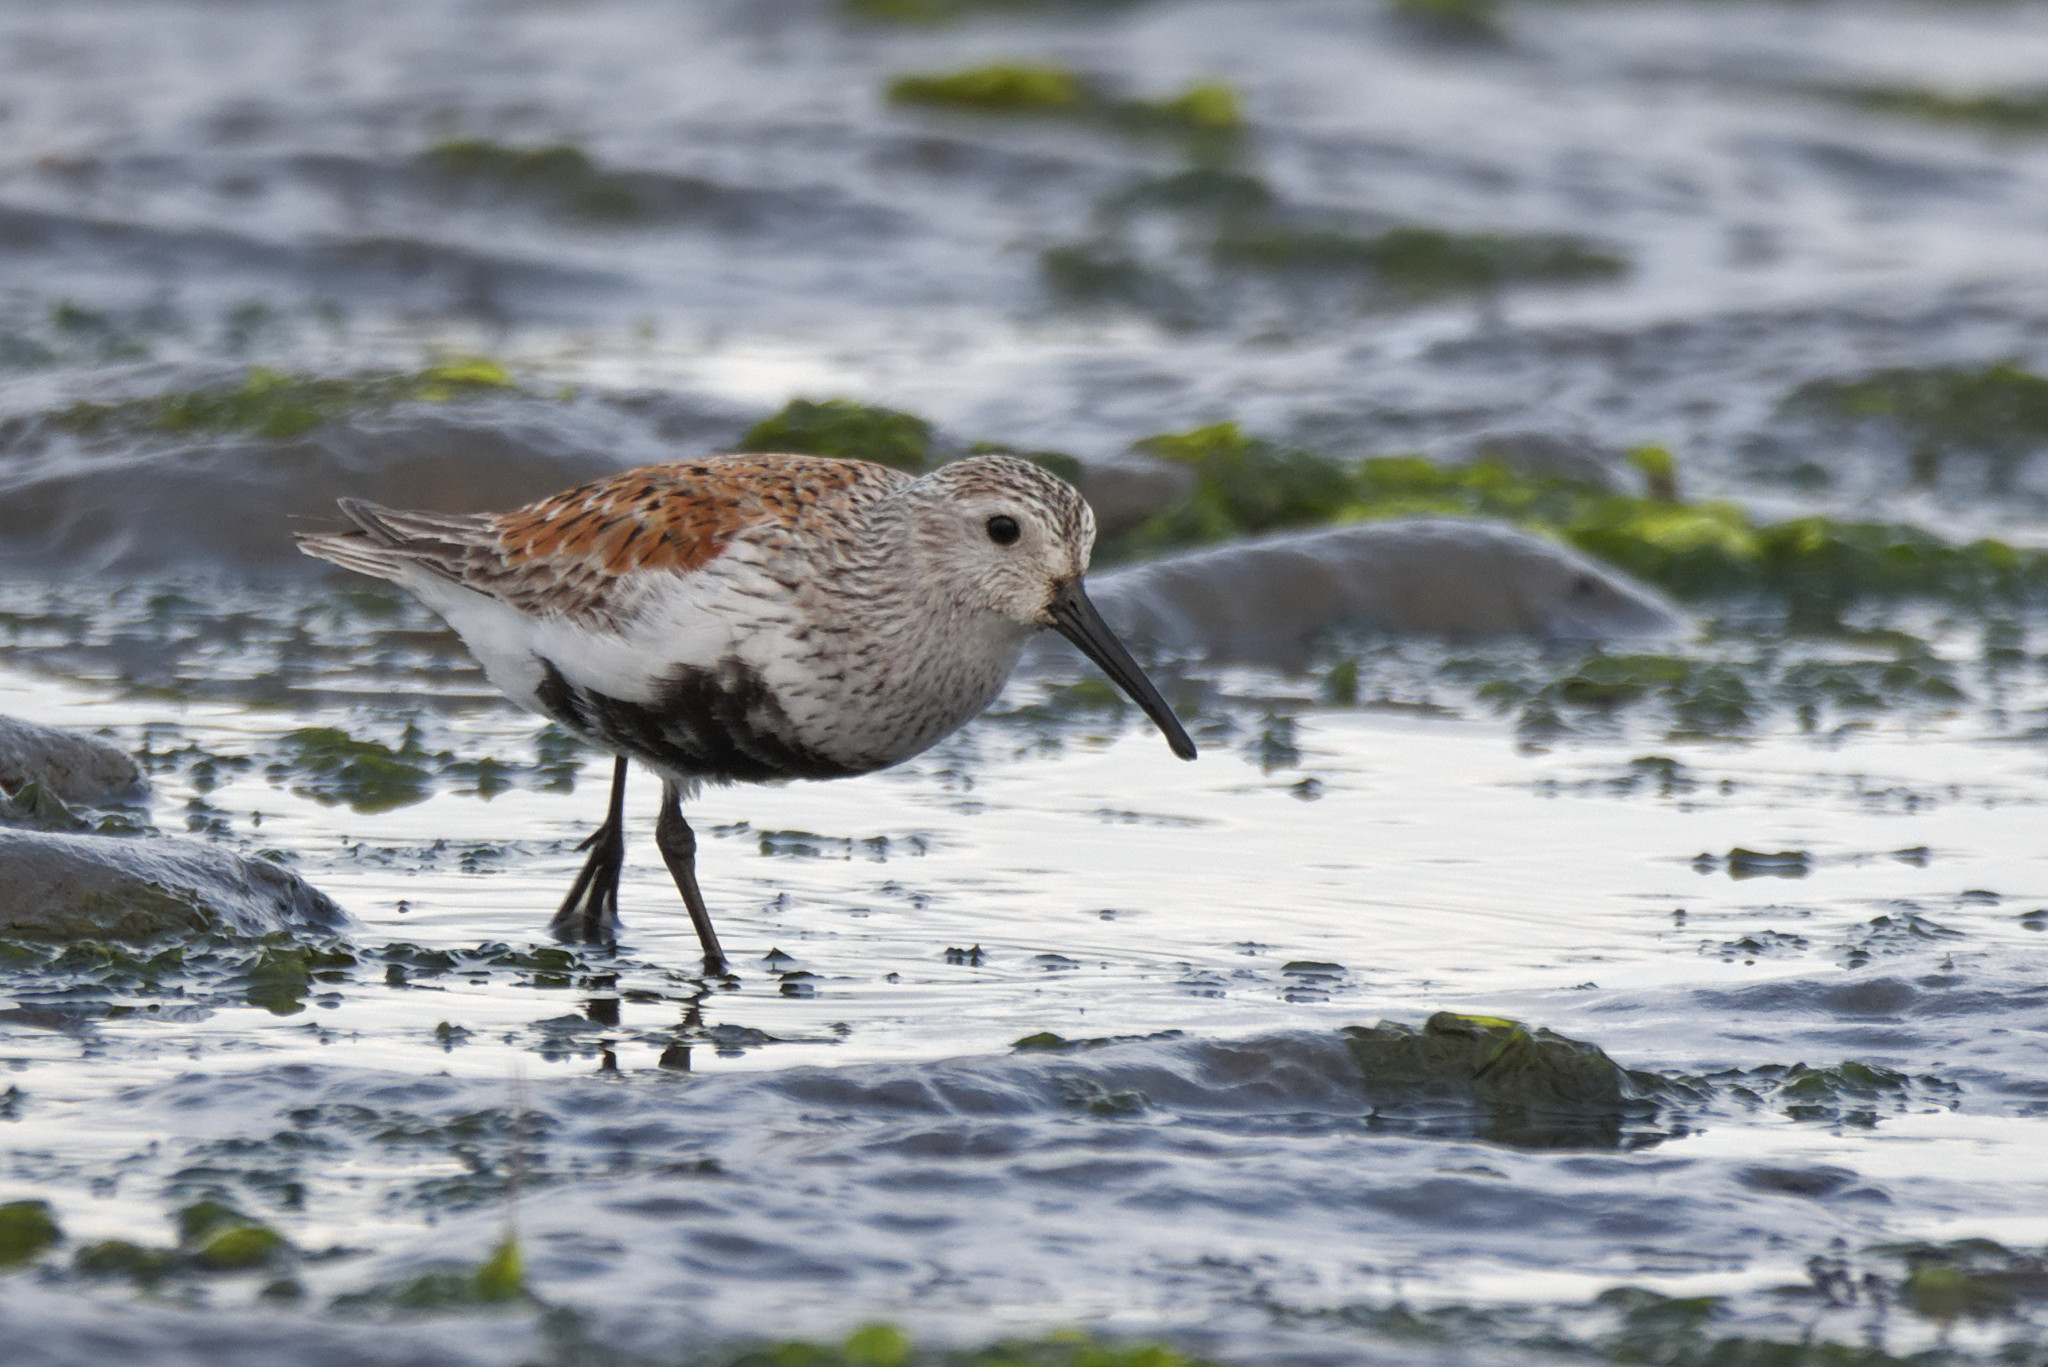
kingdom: Animalia
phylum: Chordata
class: Aves
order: Charadriiformes
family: Scolopacidae
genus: Calidris
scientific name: Calidris alpina
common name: Dunlin
